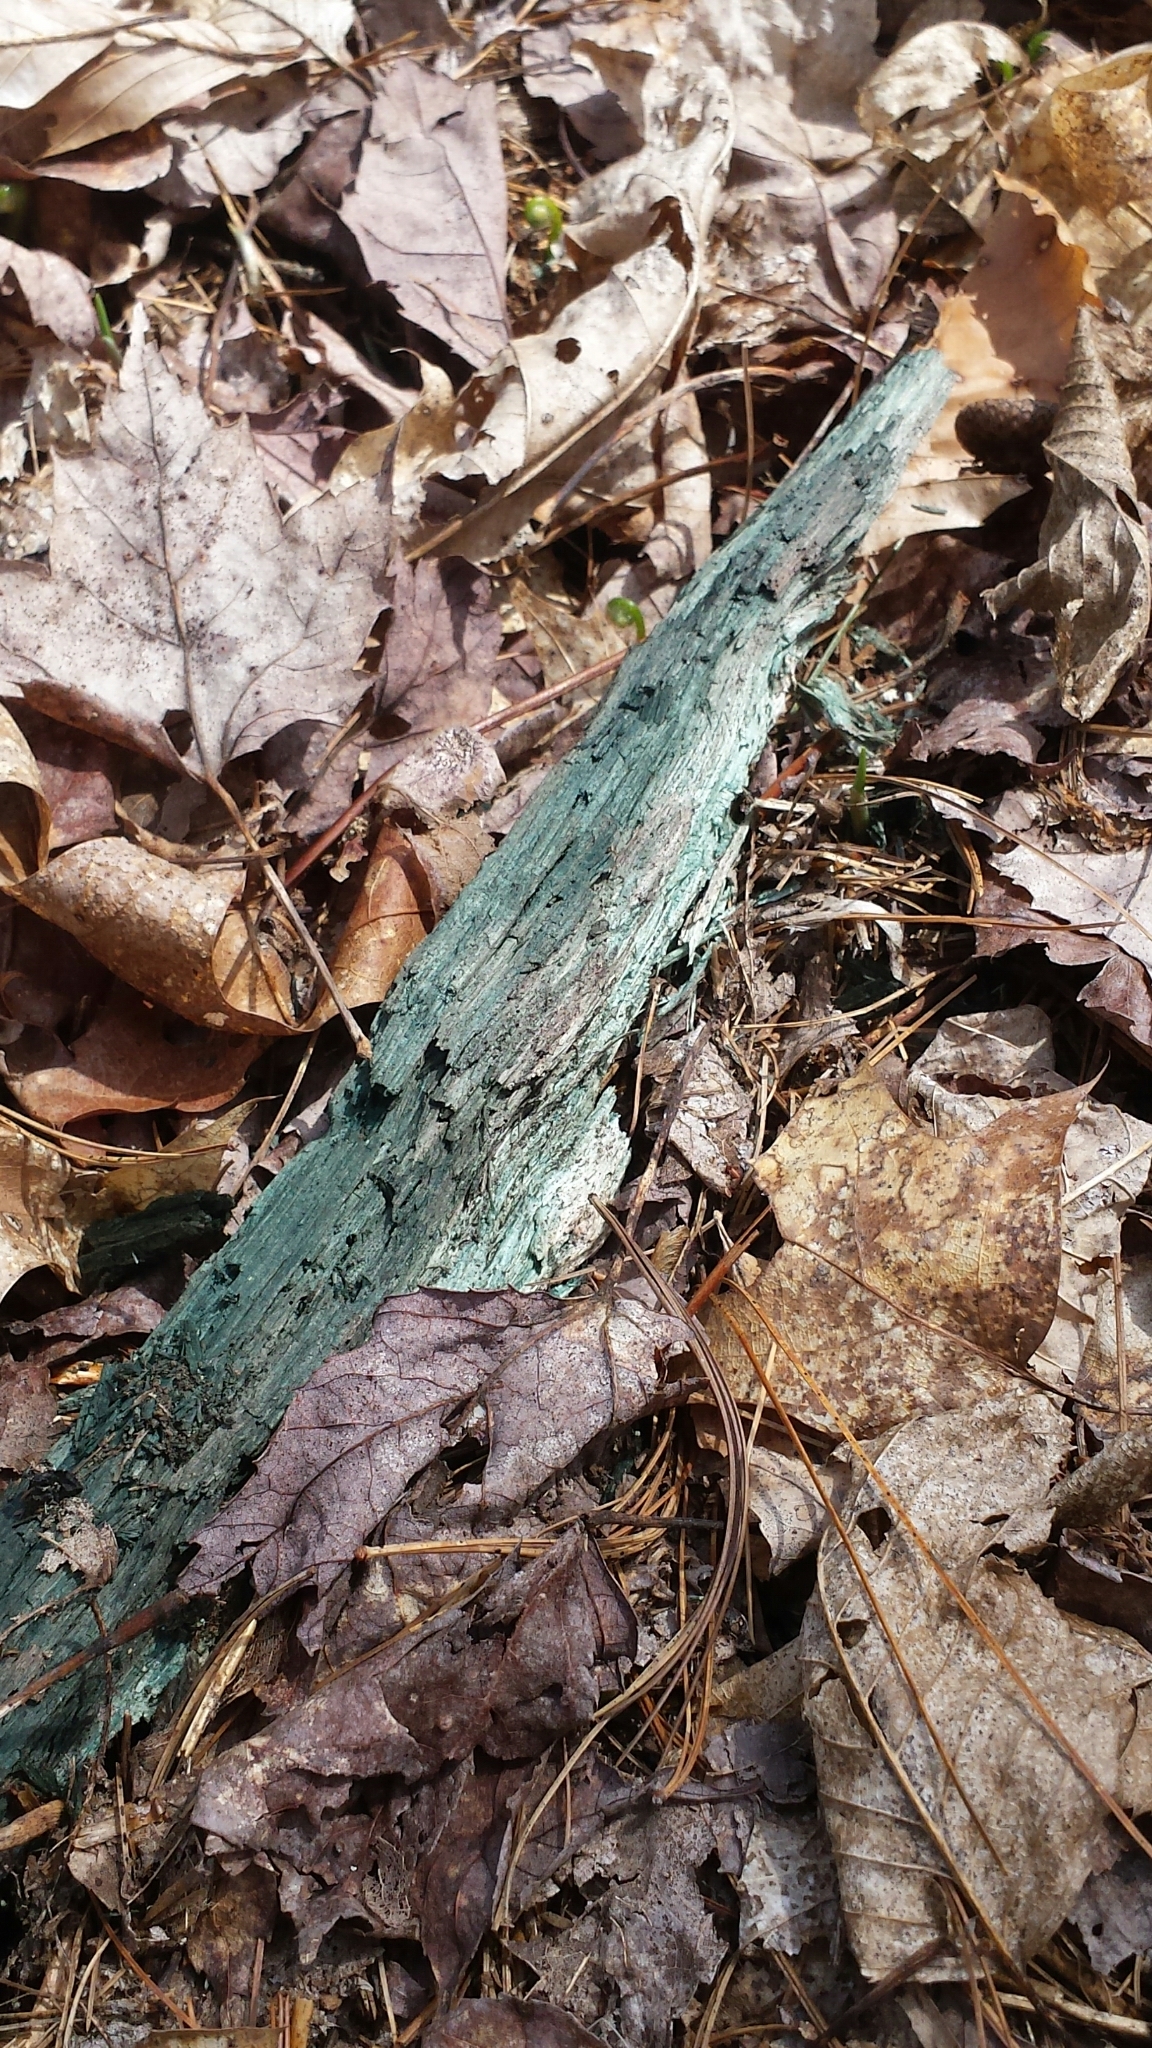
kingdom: Fungi
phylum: Ascomycota
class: Leotiomycetes
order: Helotiales
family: Chlorociboriaceae
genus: Chlorociboria
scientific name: Chlorociboria
